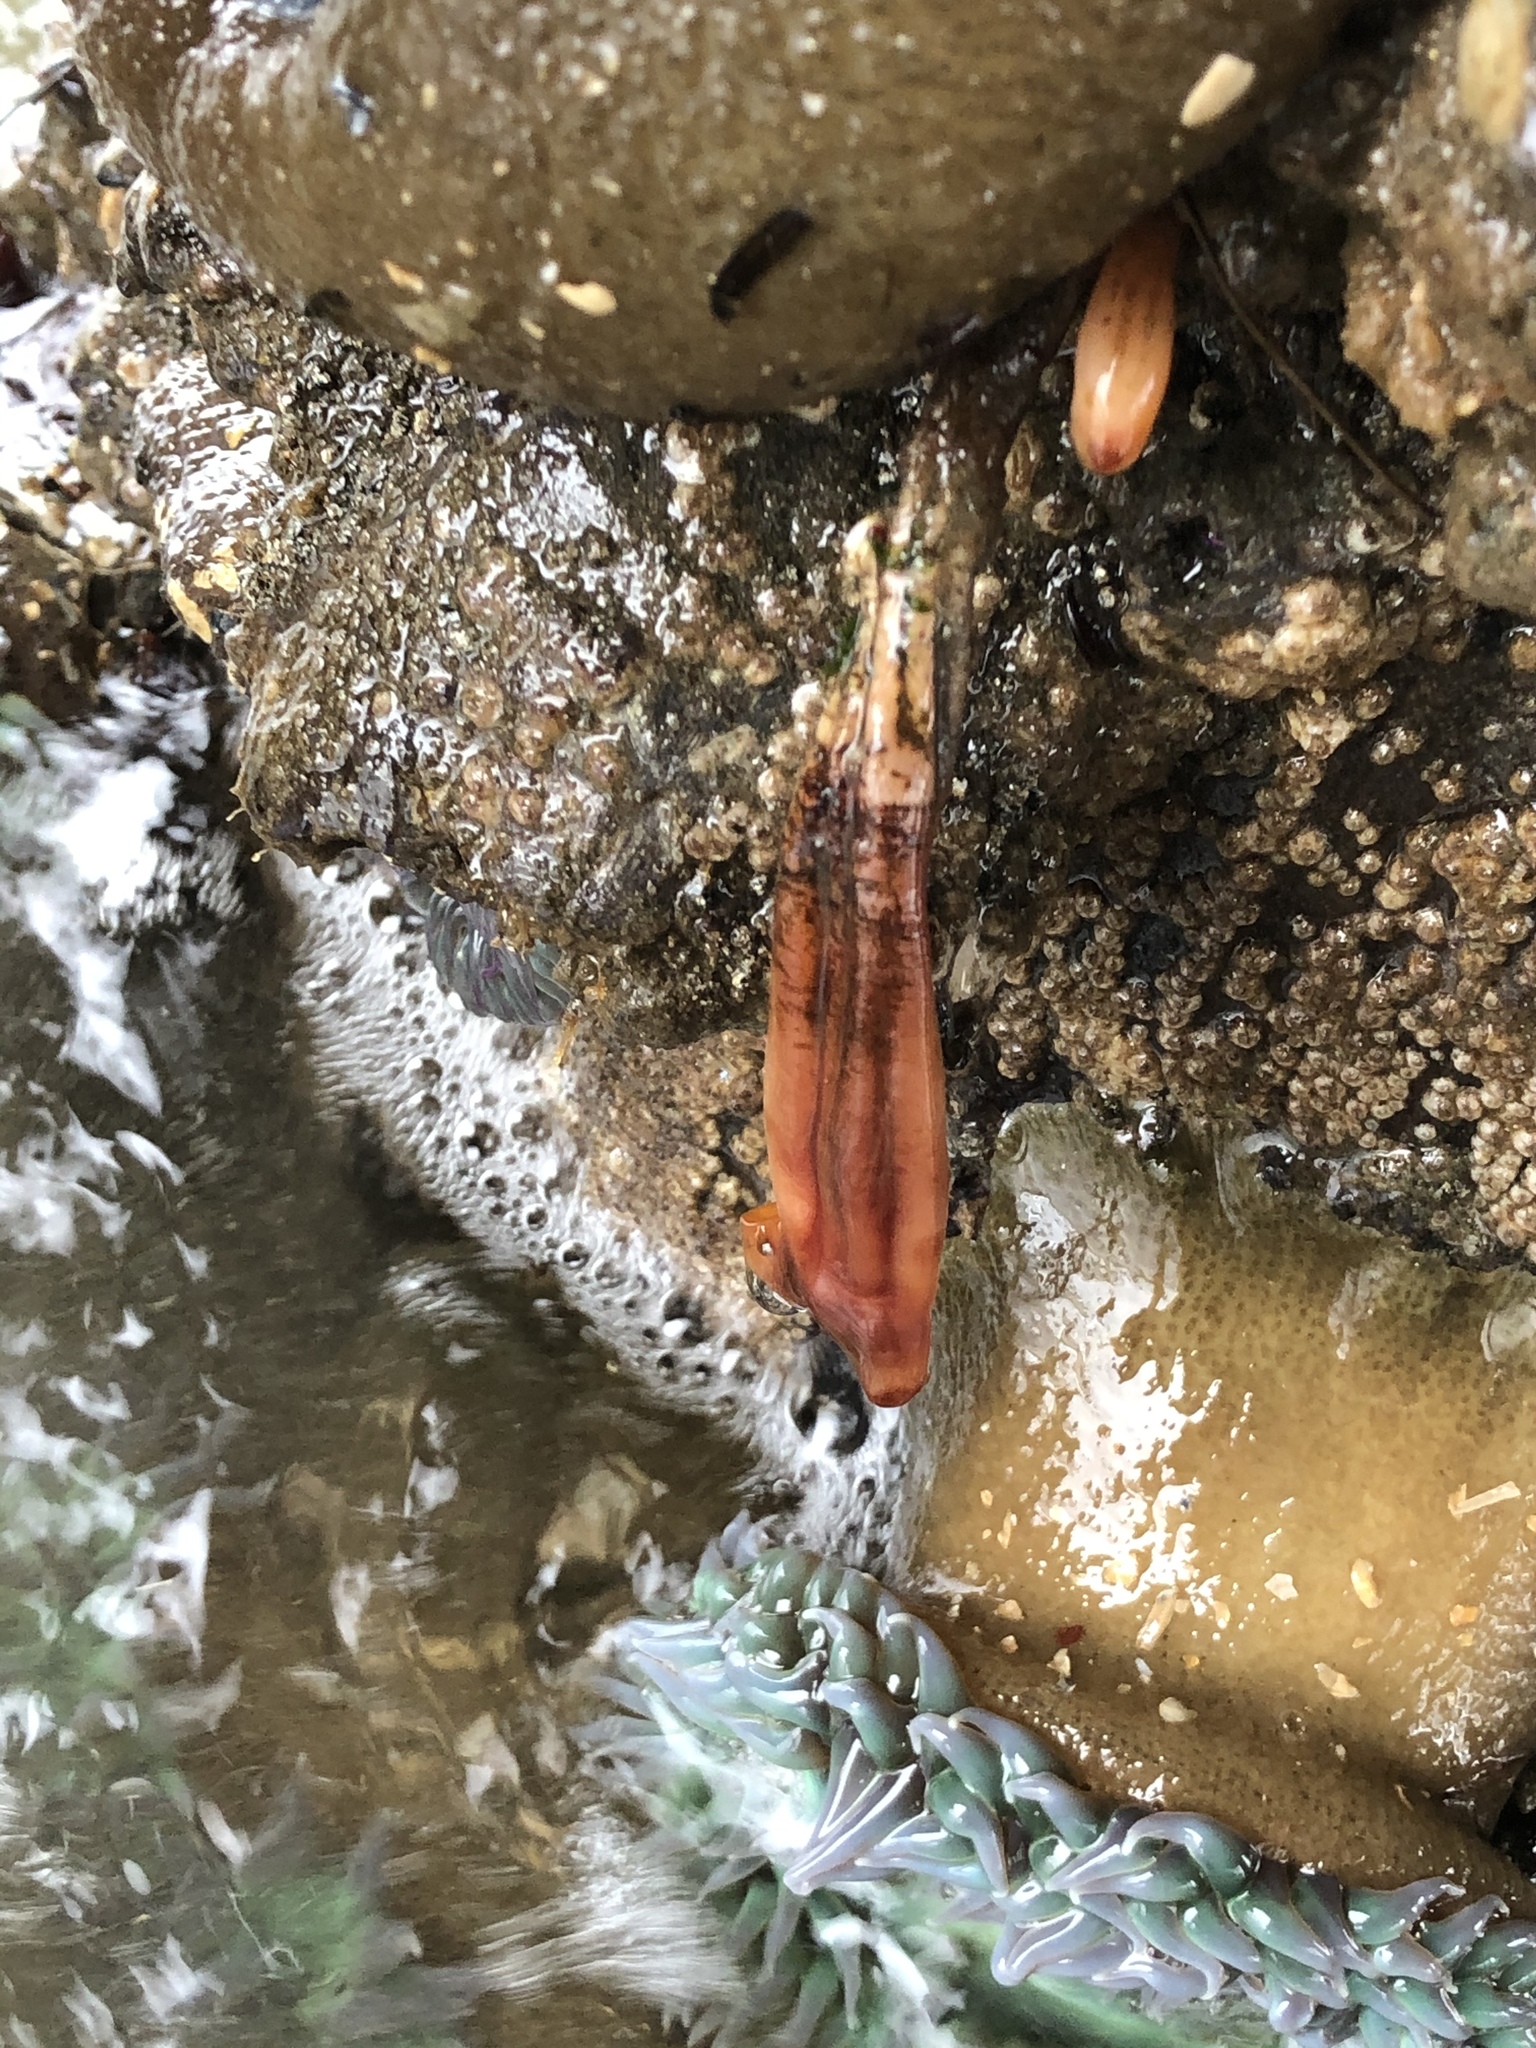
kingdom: Animalia
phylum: Chordata
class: Ascidiacea
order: Stolidobranchia
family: Styelidae
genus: Styela
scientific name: Styela montereyensis
